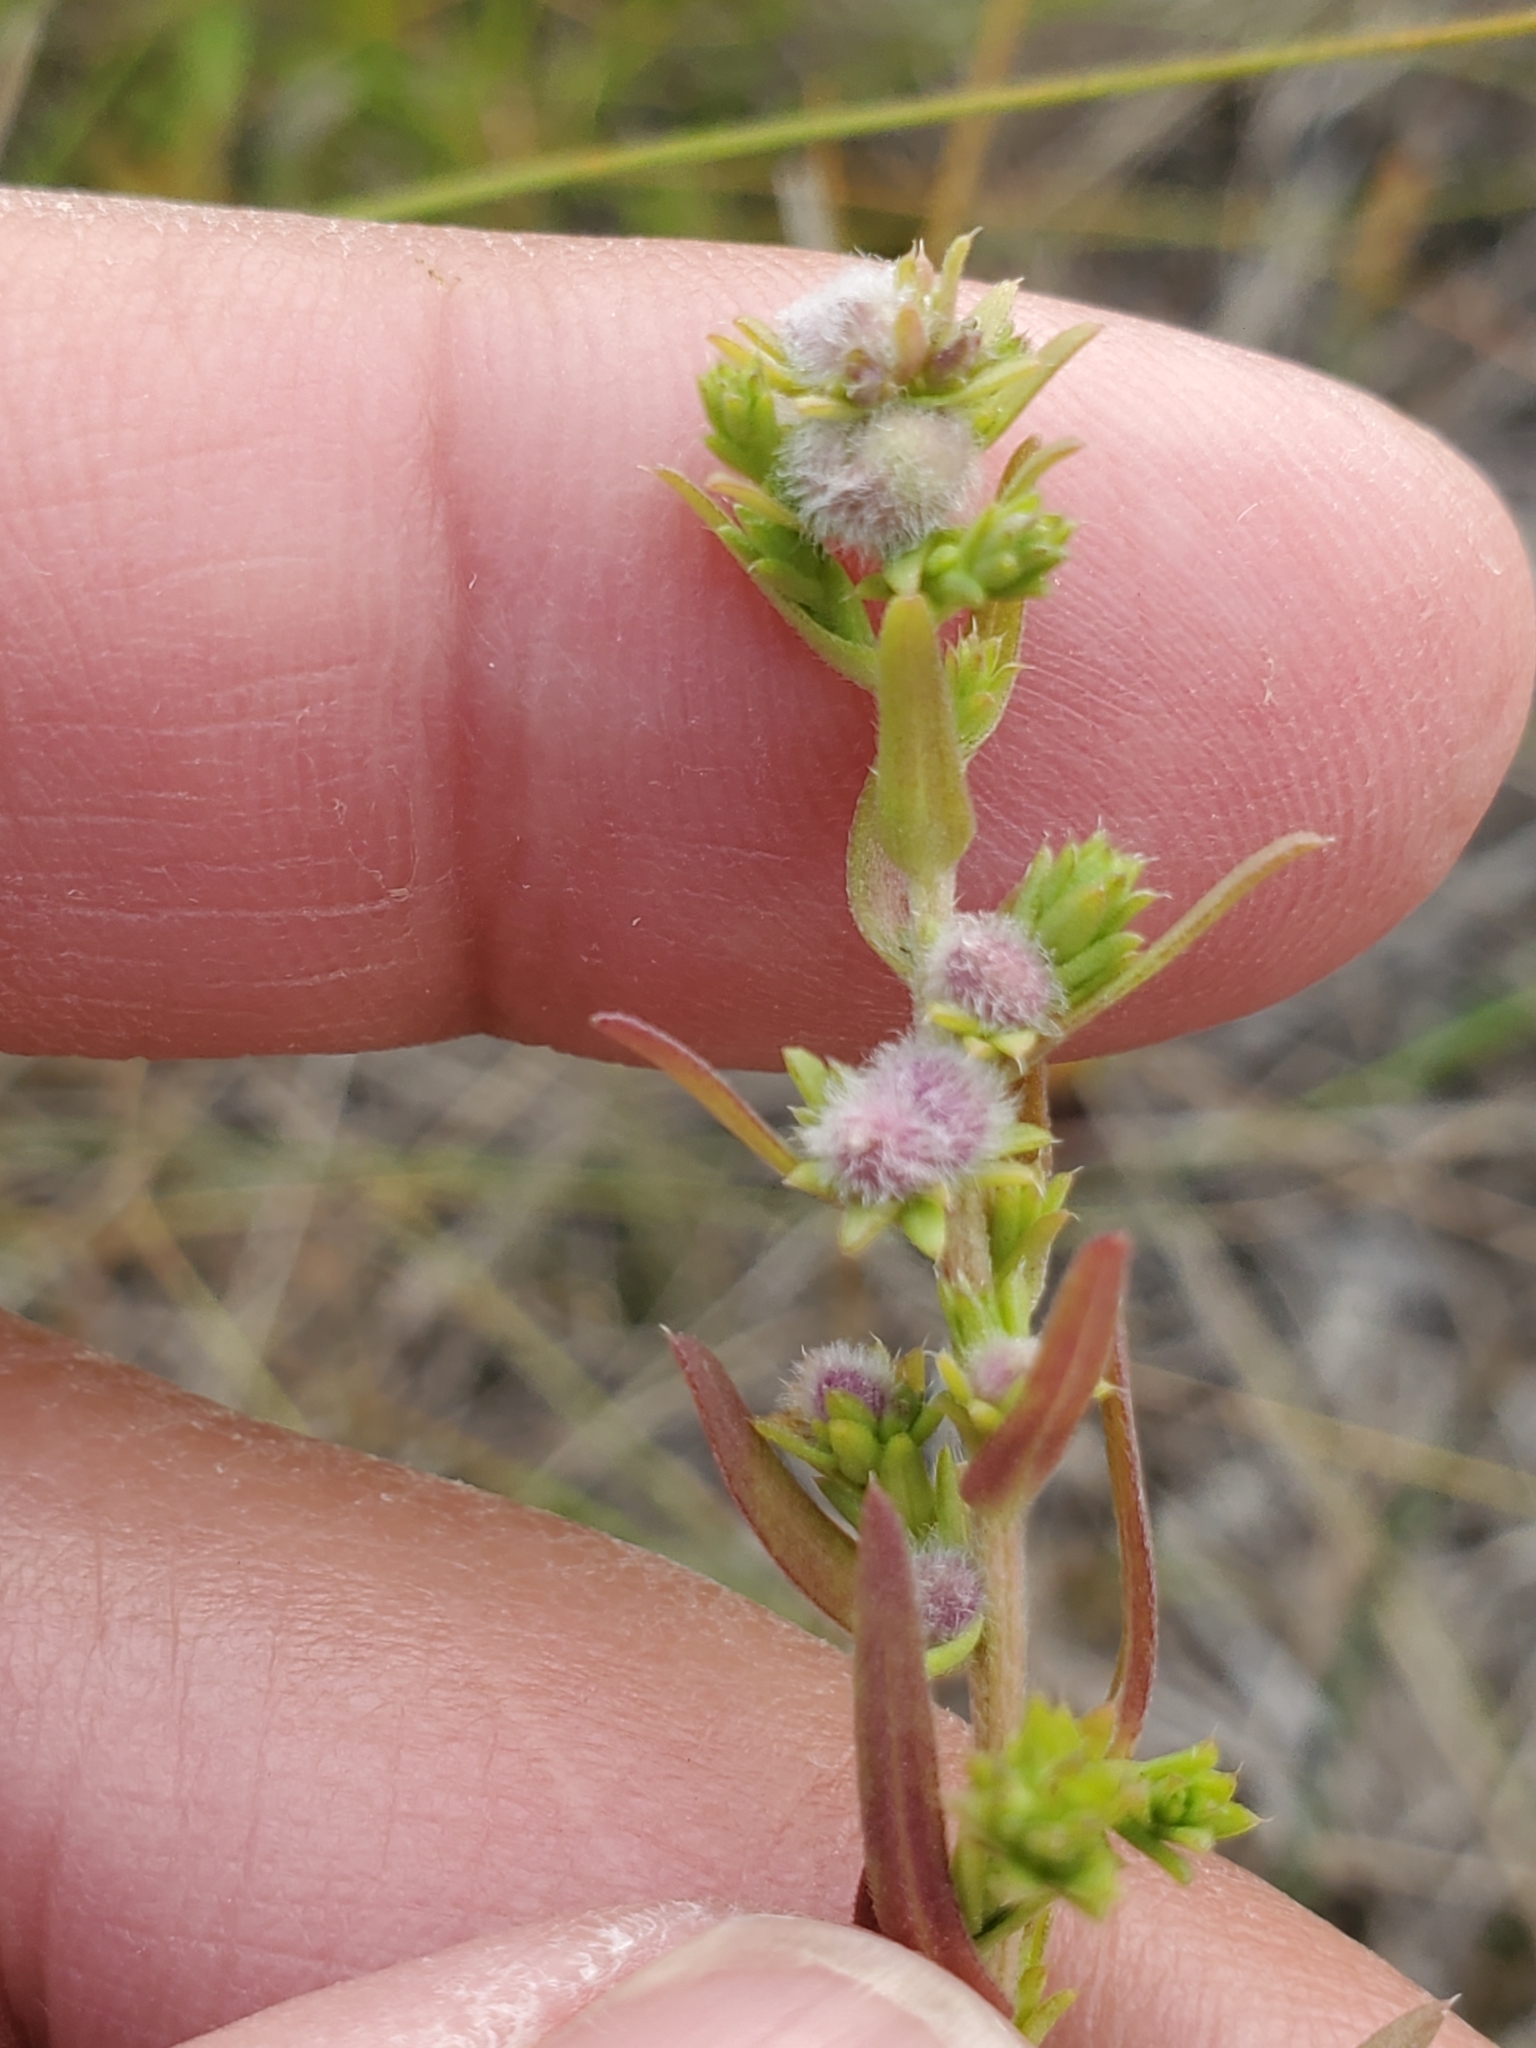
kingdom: Animalia
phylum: Arthropoda
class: Insecta
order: Diptera
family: Cecidomyiidae
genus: Rhopalomyia
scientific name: Rhopalomyia gemmaria
